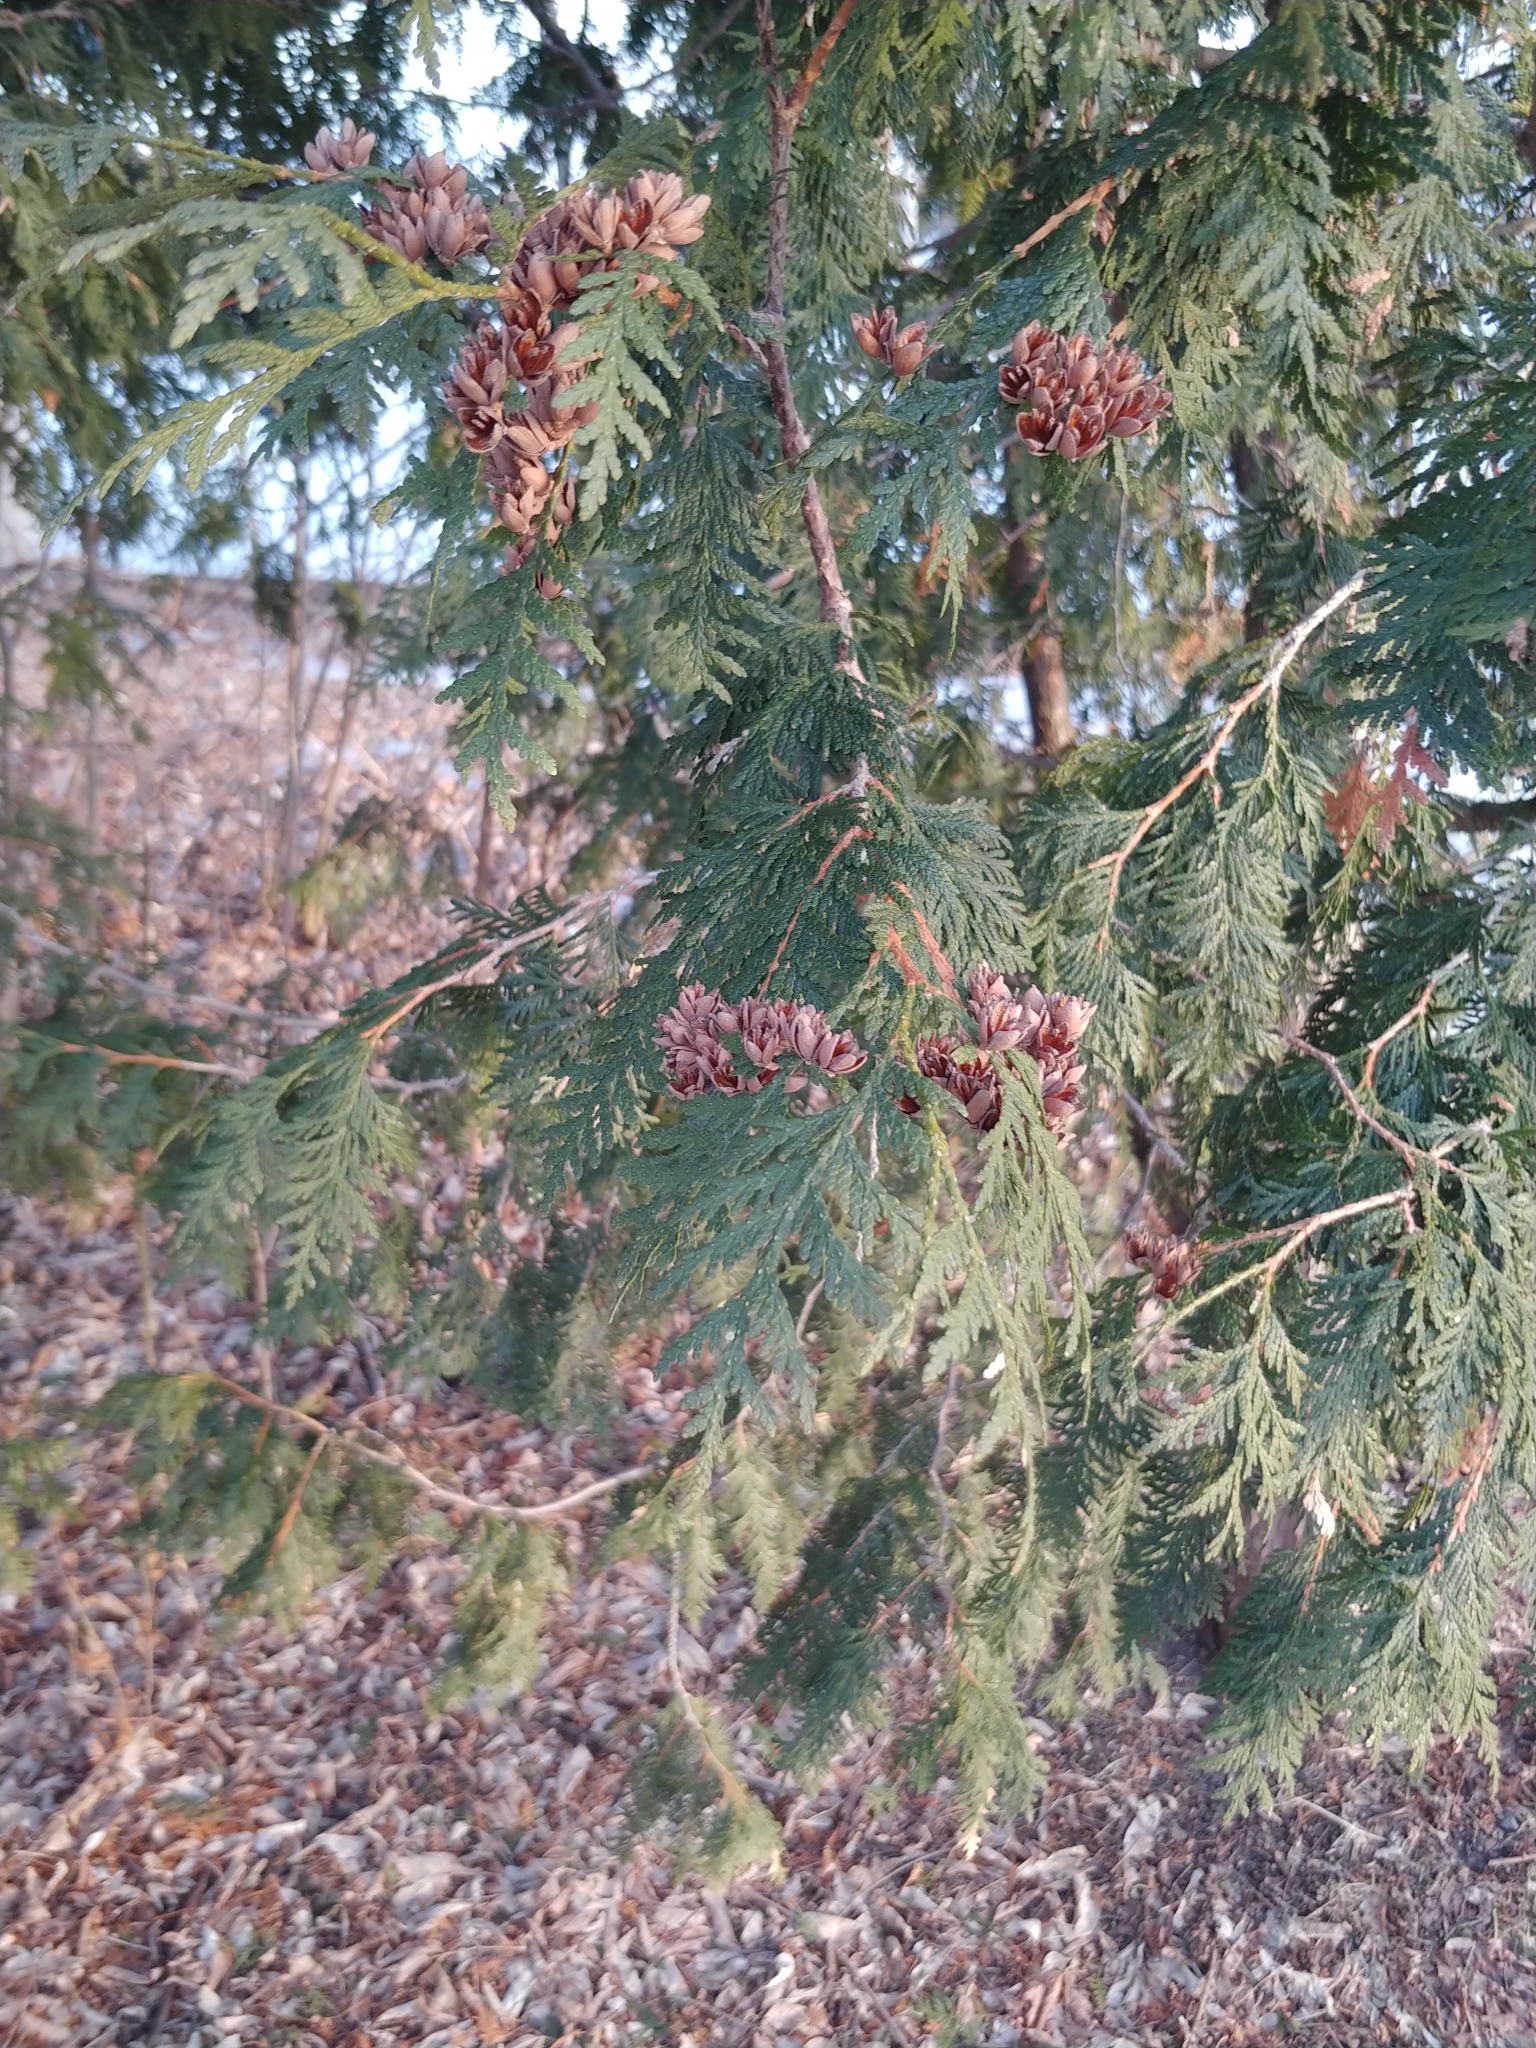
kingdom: Plantae
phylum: Tracheophyta
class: Pinopsida
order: Pinales
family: Cupressaceae
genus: Thuja
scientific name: Thuja occidentalis
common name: Northern white-cedar
